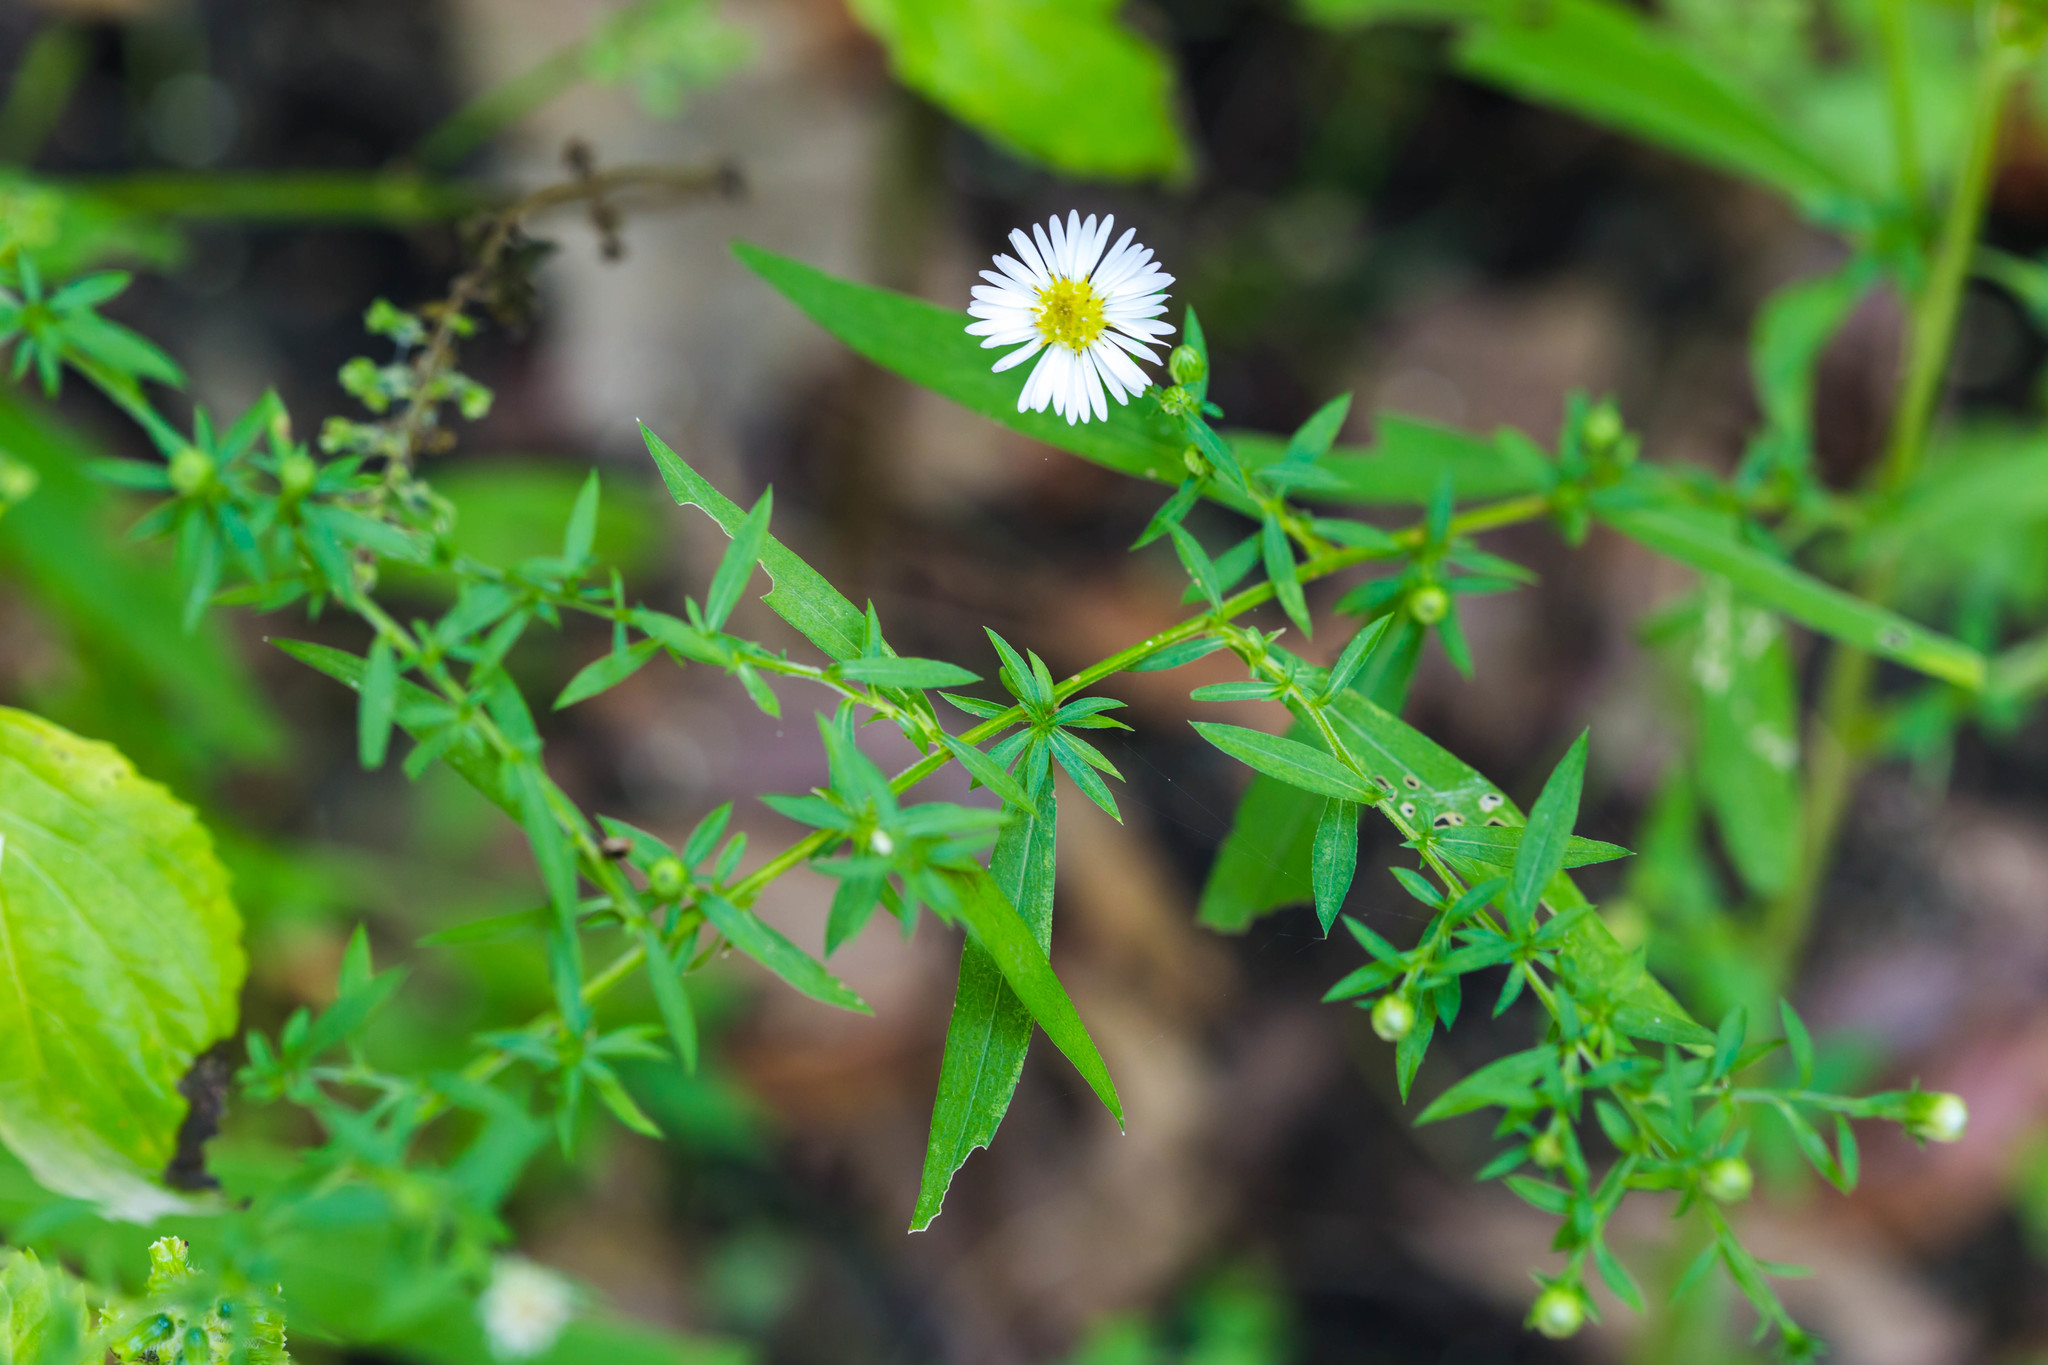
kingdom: Plantae
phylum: Tracheophyta
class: Magnoliopsida
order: Asterales
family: Asteraceae
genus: Symphyotrichum
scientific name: Symphyotrichum lanceolatum
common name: Panicled aster
